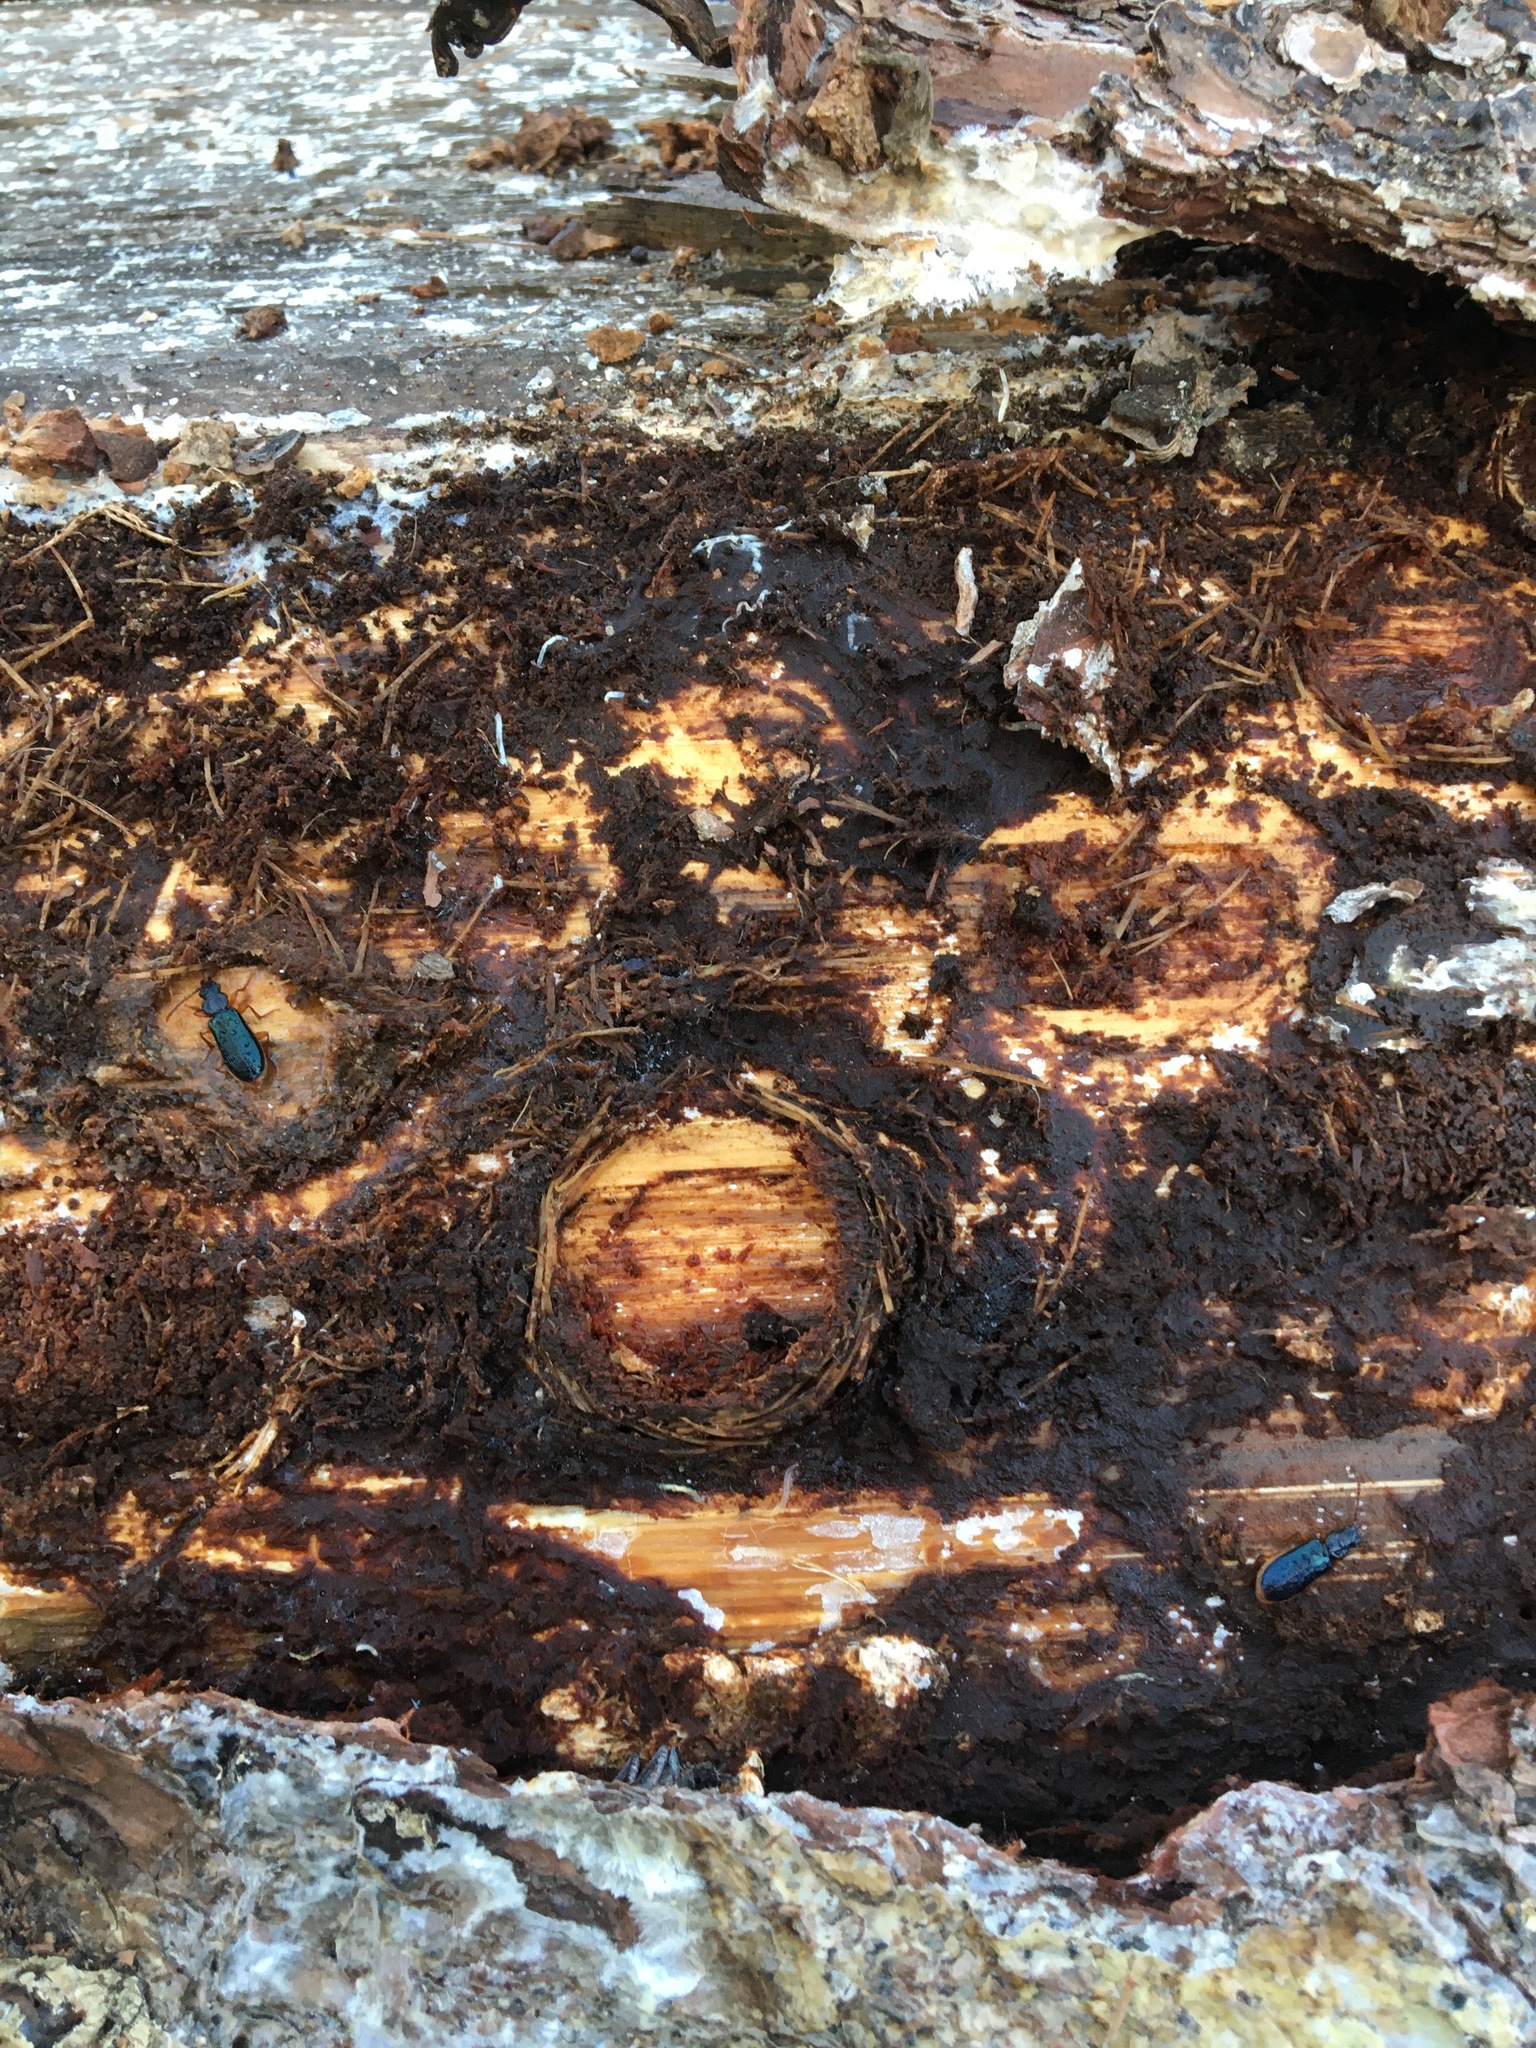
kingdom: Animalia
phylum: Arthropoda
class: Insecta
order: Coleoptera
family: Pythidae
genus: Pytho
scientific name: Pytho americanus
